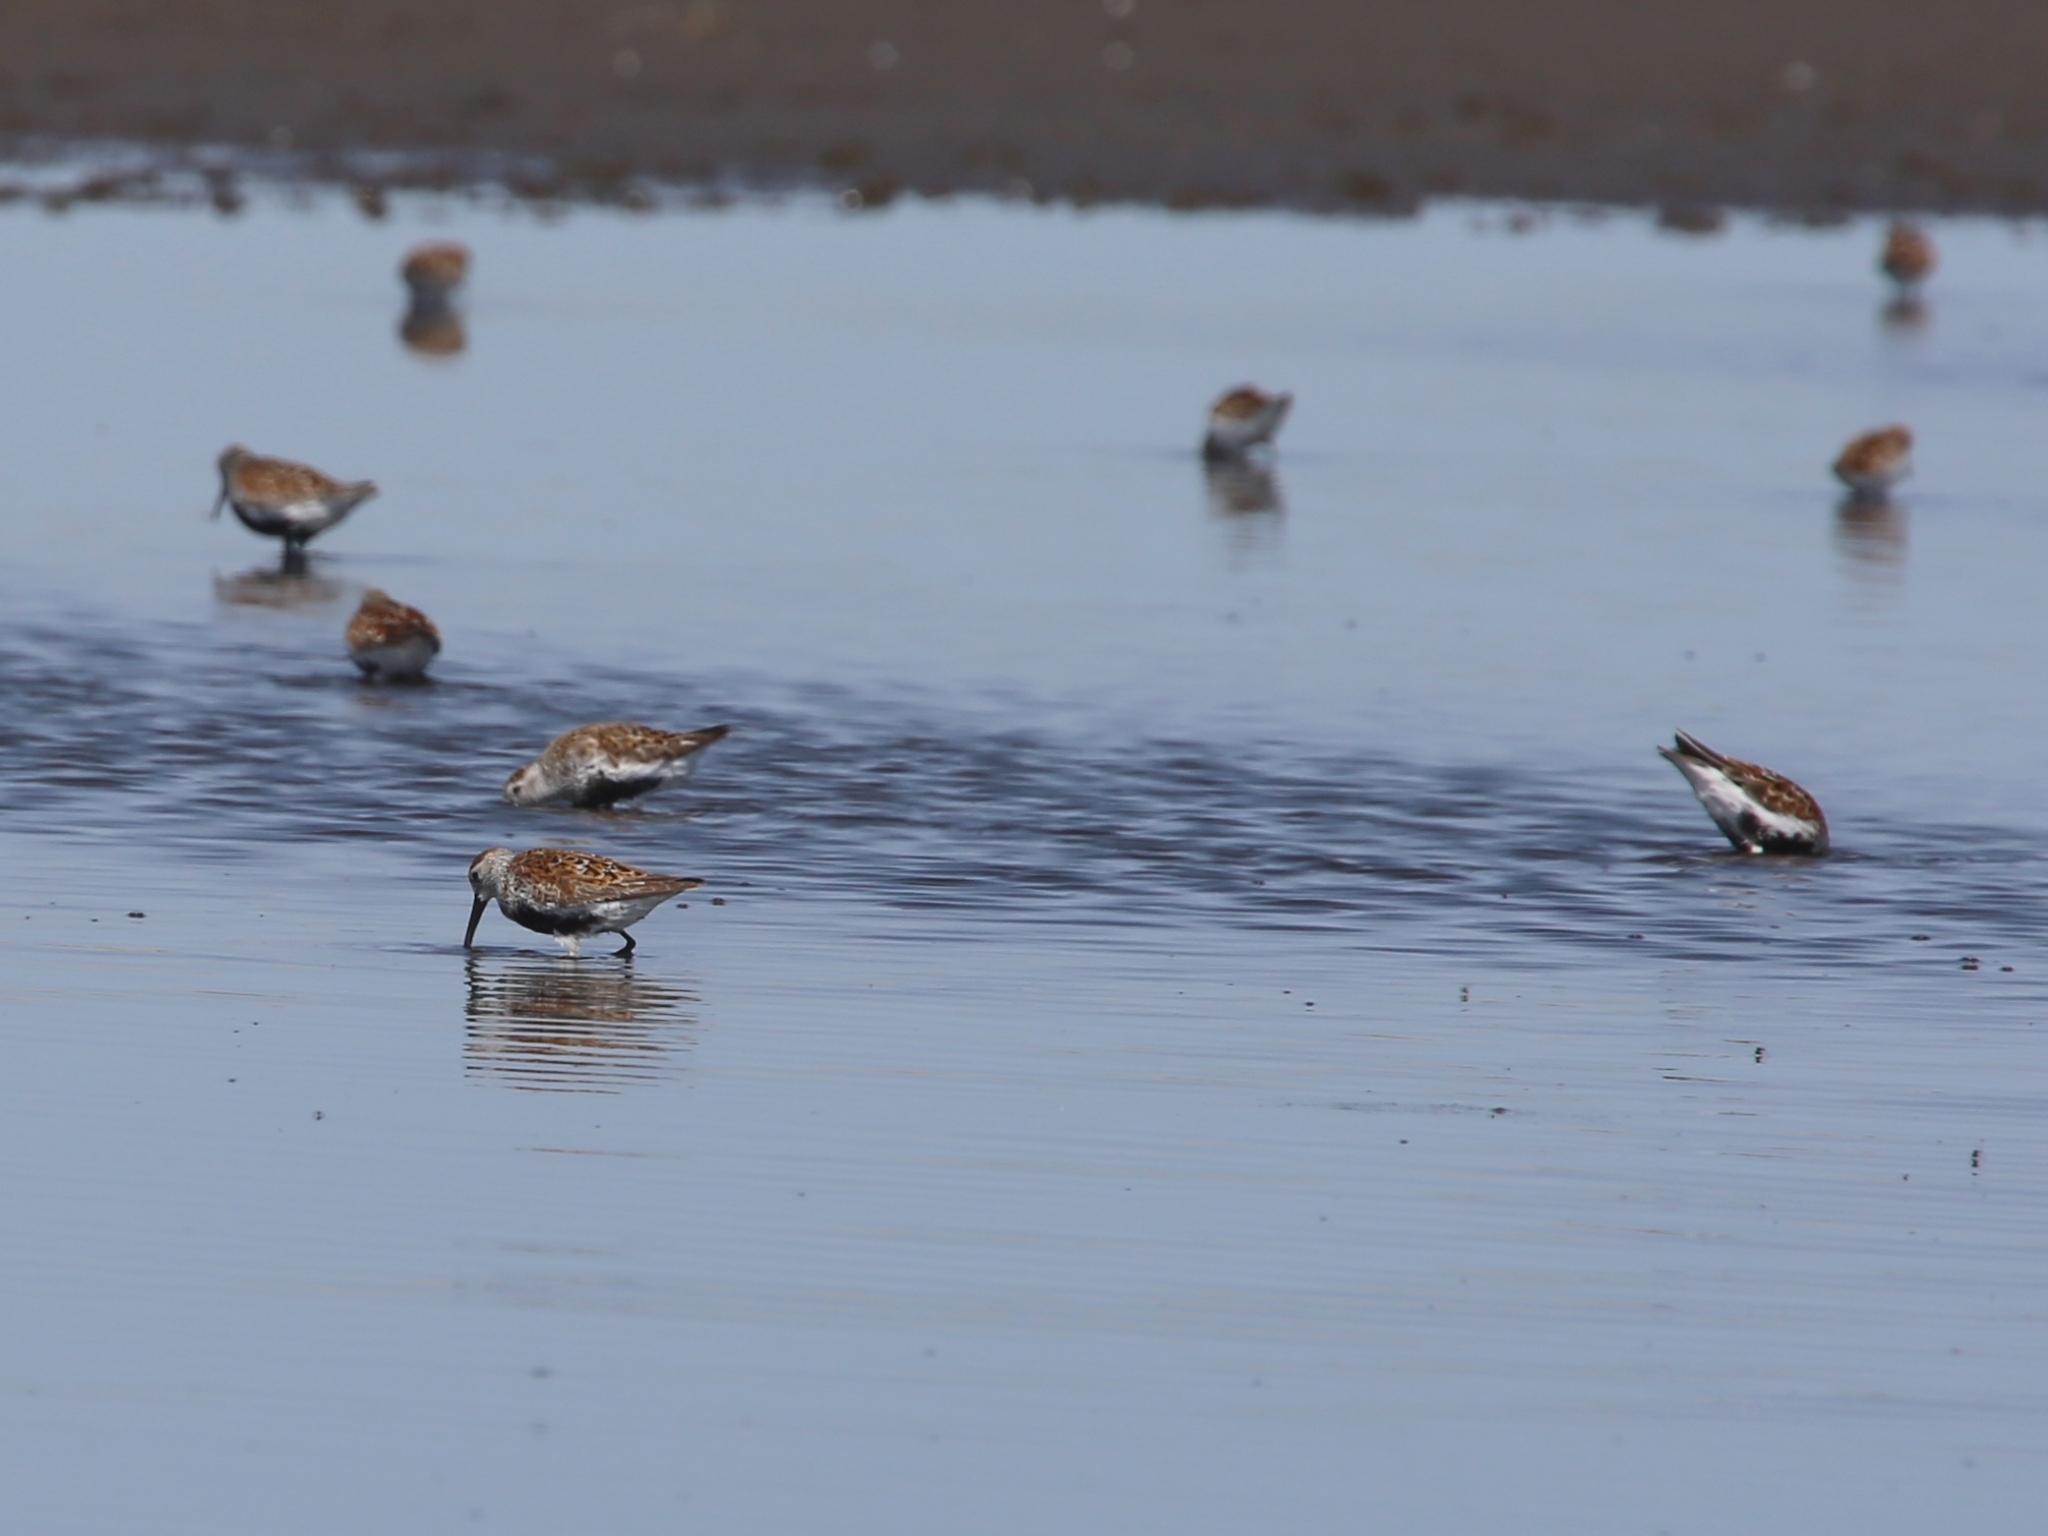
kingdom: Animalia
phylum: Chordata
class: Aves
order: Charadriiformes
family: Scolopacidae
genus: Calidris
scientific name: Calidris alpina
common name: Dunlin
